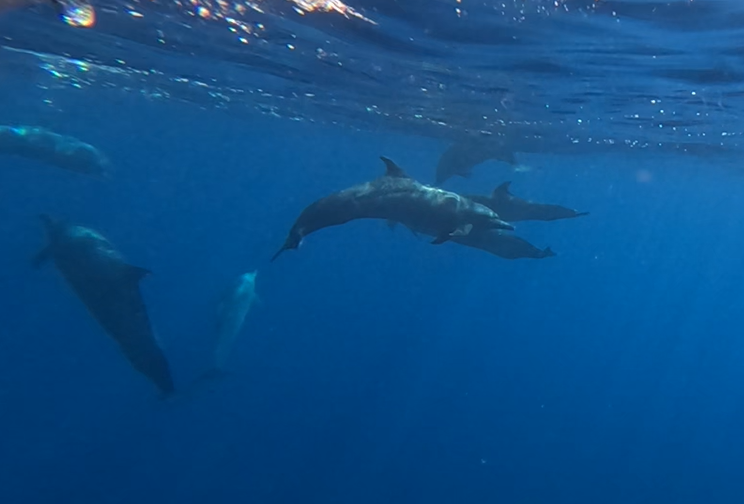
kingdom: Animalia
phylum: Chordata
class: Mammalia
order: Cetacea
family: Delphinidae
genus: Stenella
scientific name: Stenella attenuata
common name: Pantropical spotted dolphin
